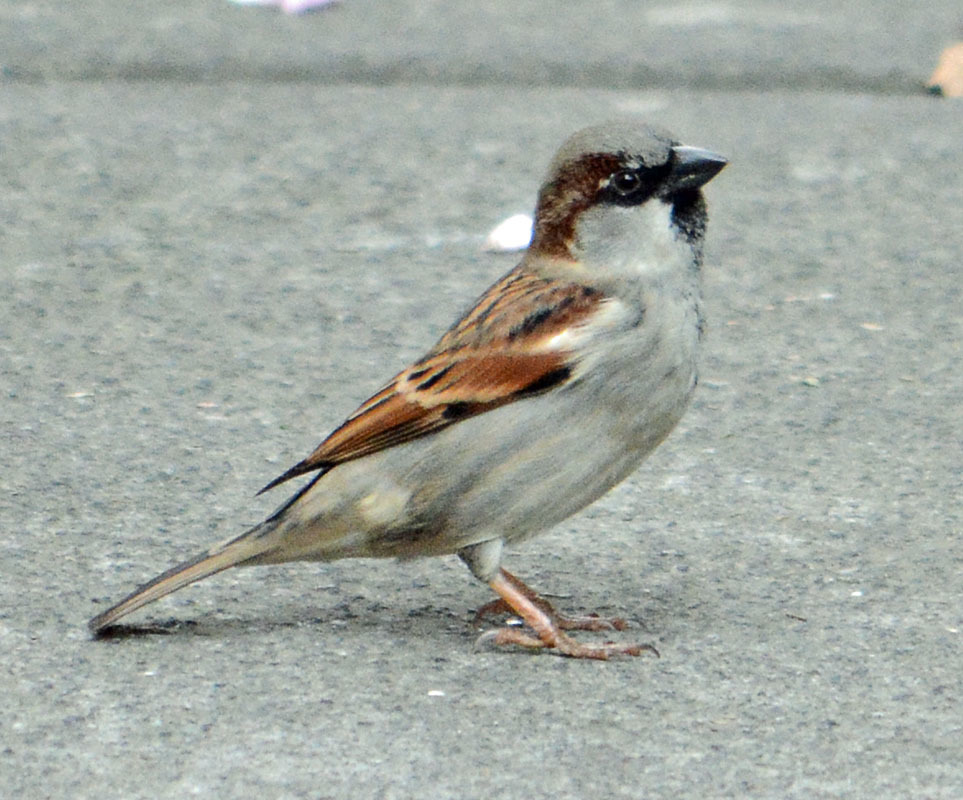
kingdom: Animalia
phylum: Chordata
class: Aves
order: Passeriformes
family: Passeridae
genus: Passer
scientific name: Passer domesticus
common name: House sparrow
